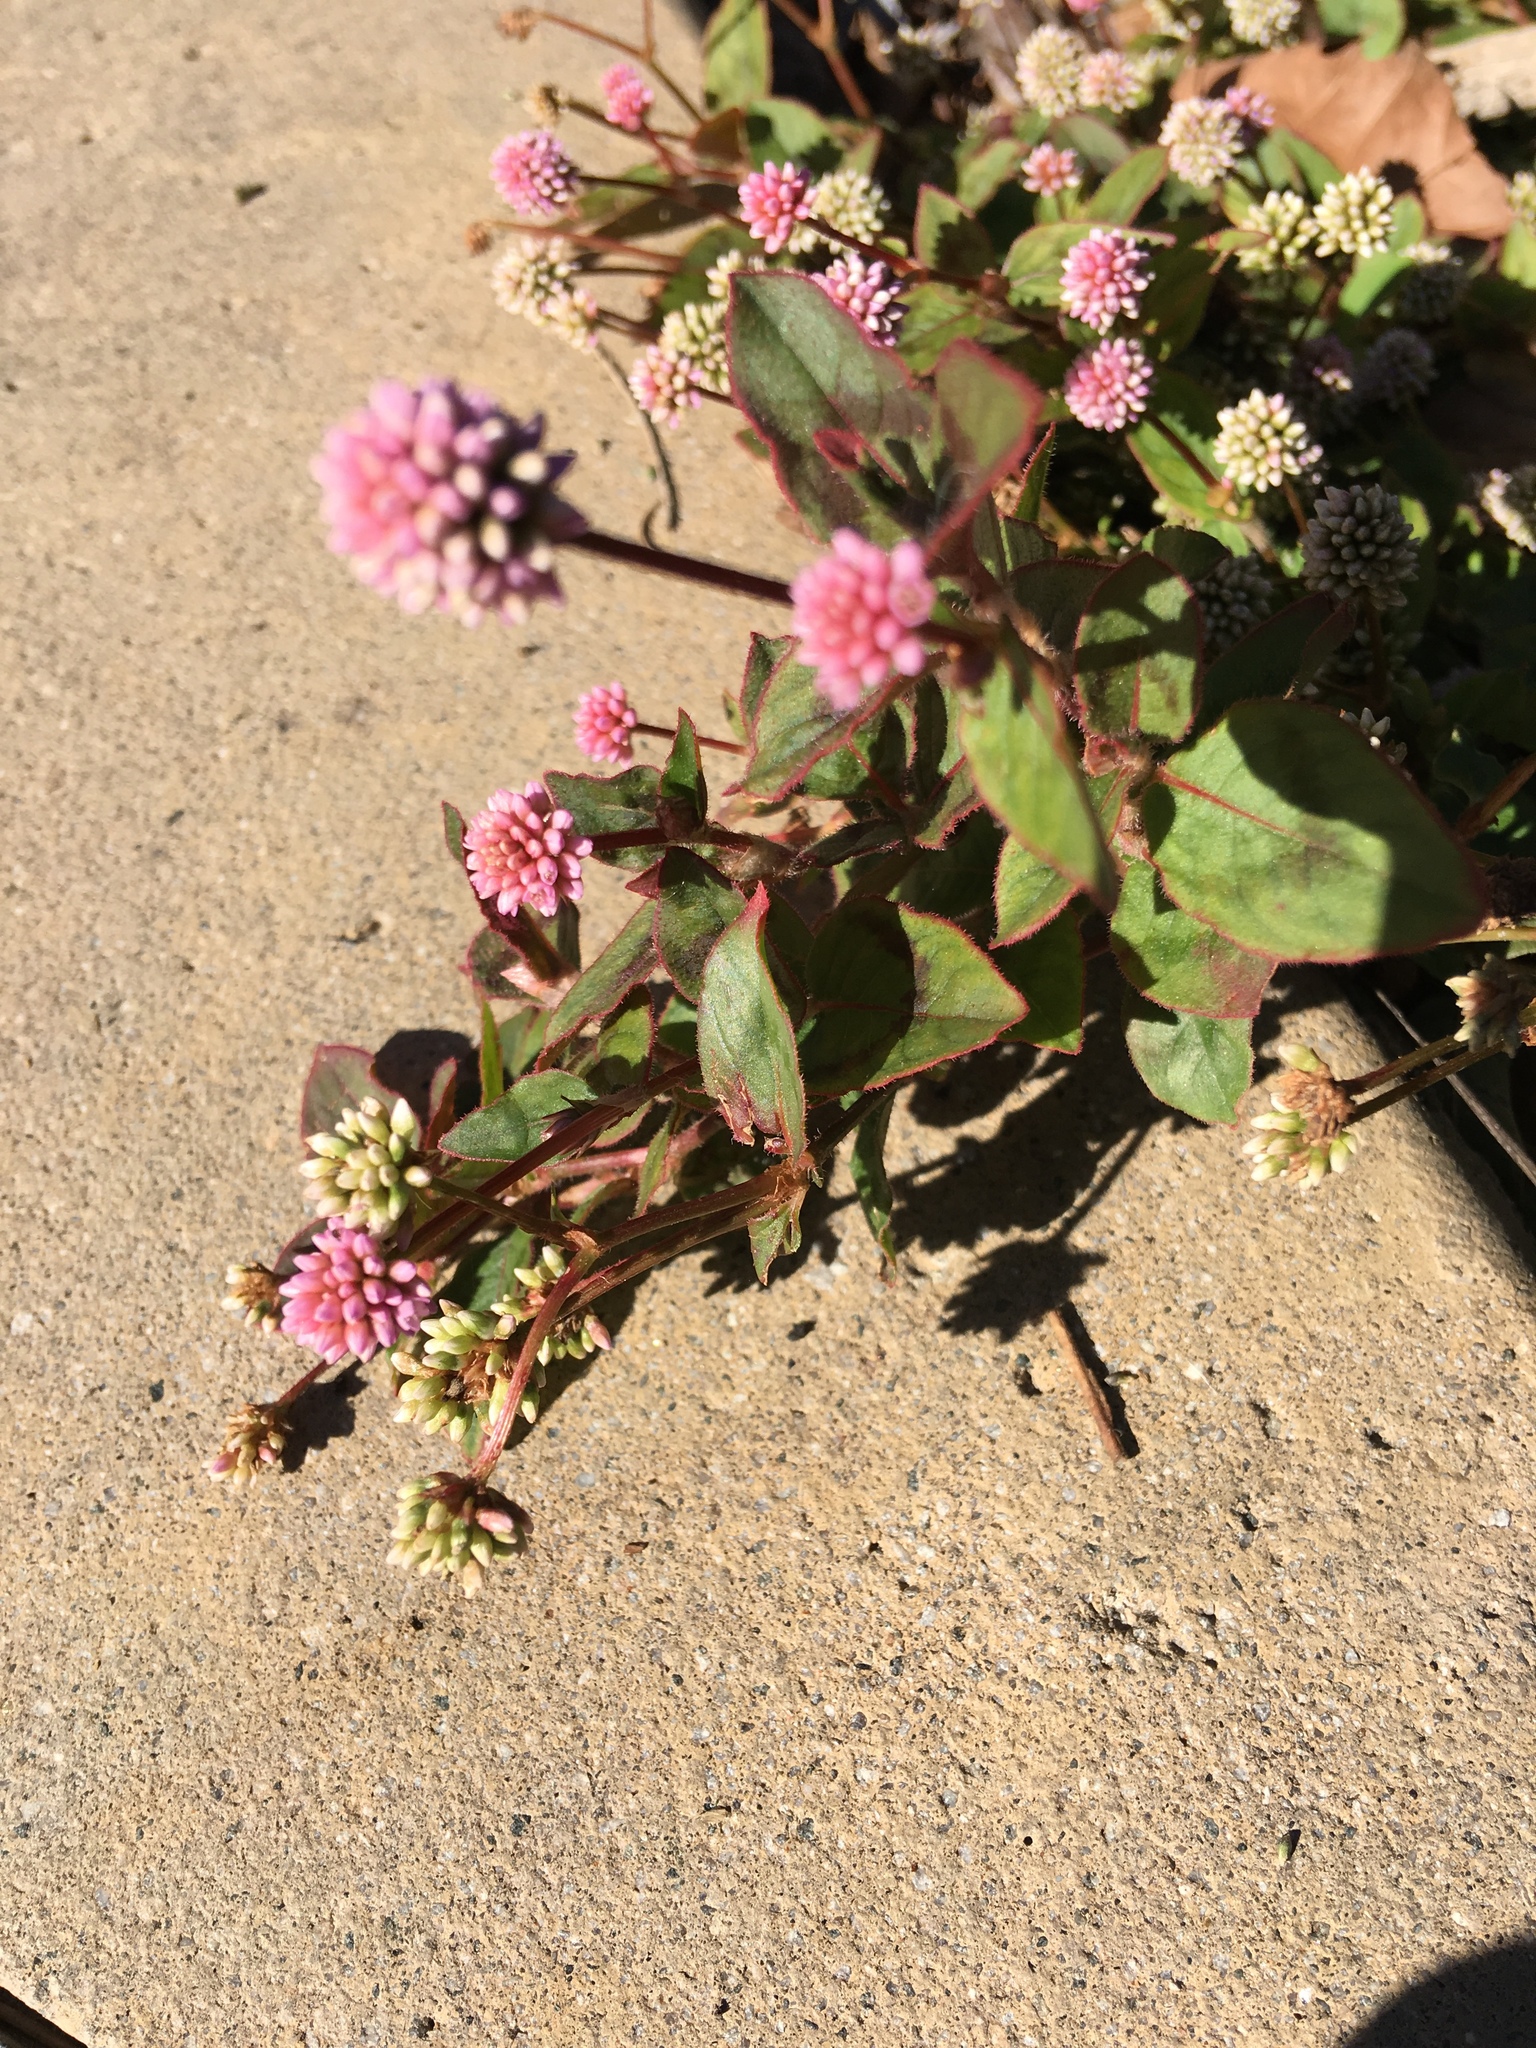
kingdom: Plantae
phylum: Tracheophyta
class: Magnoliopsida
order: Caryophyllales
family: Polygonaceae
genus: Persicaria
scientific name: Persicaria capitata
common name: Pinkhead smartweed
